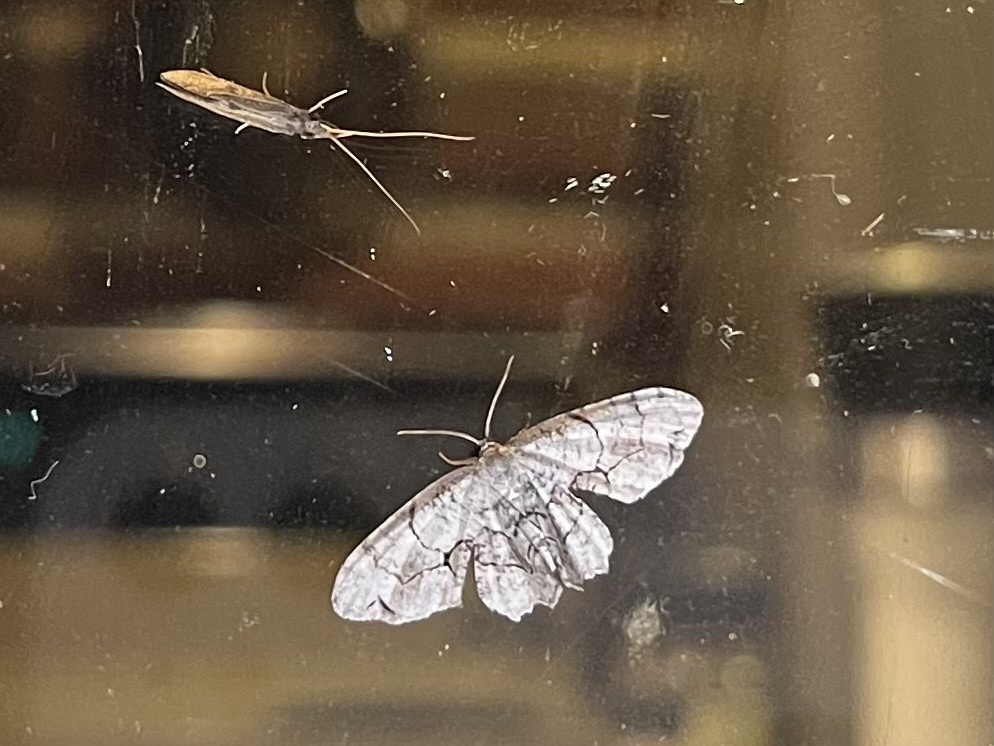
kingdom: Animalia
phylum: Arthropoda
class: Insecta
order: Lepidoptera
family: Uraniidae
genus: Epiplema
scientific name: Epiplema Callizzia amorata
